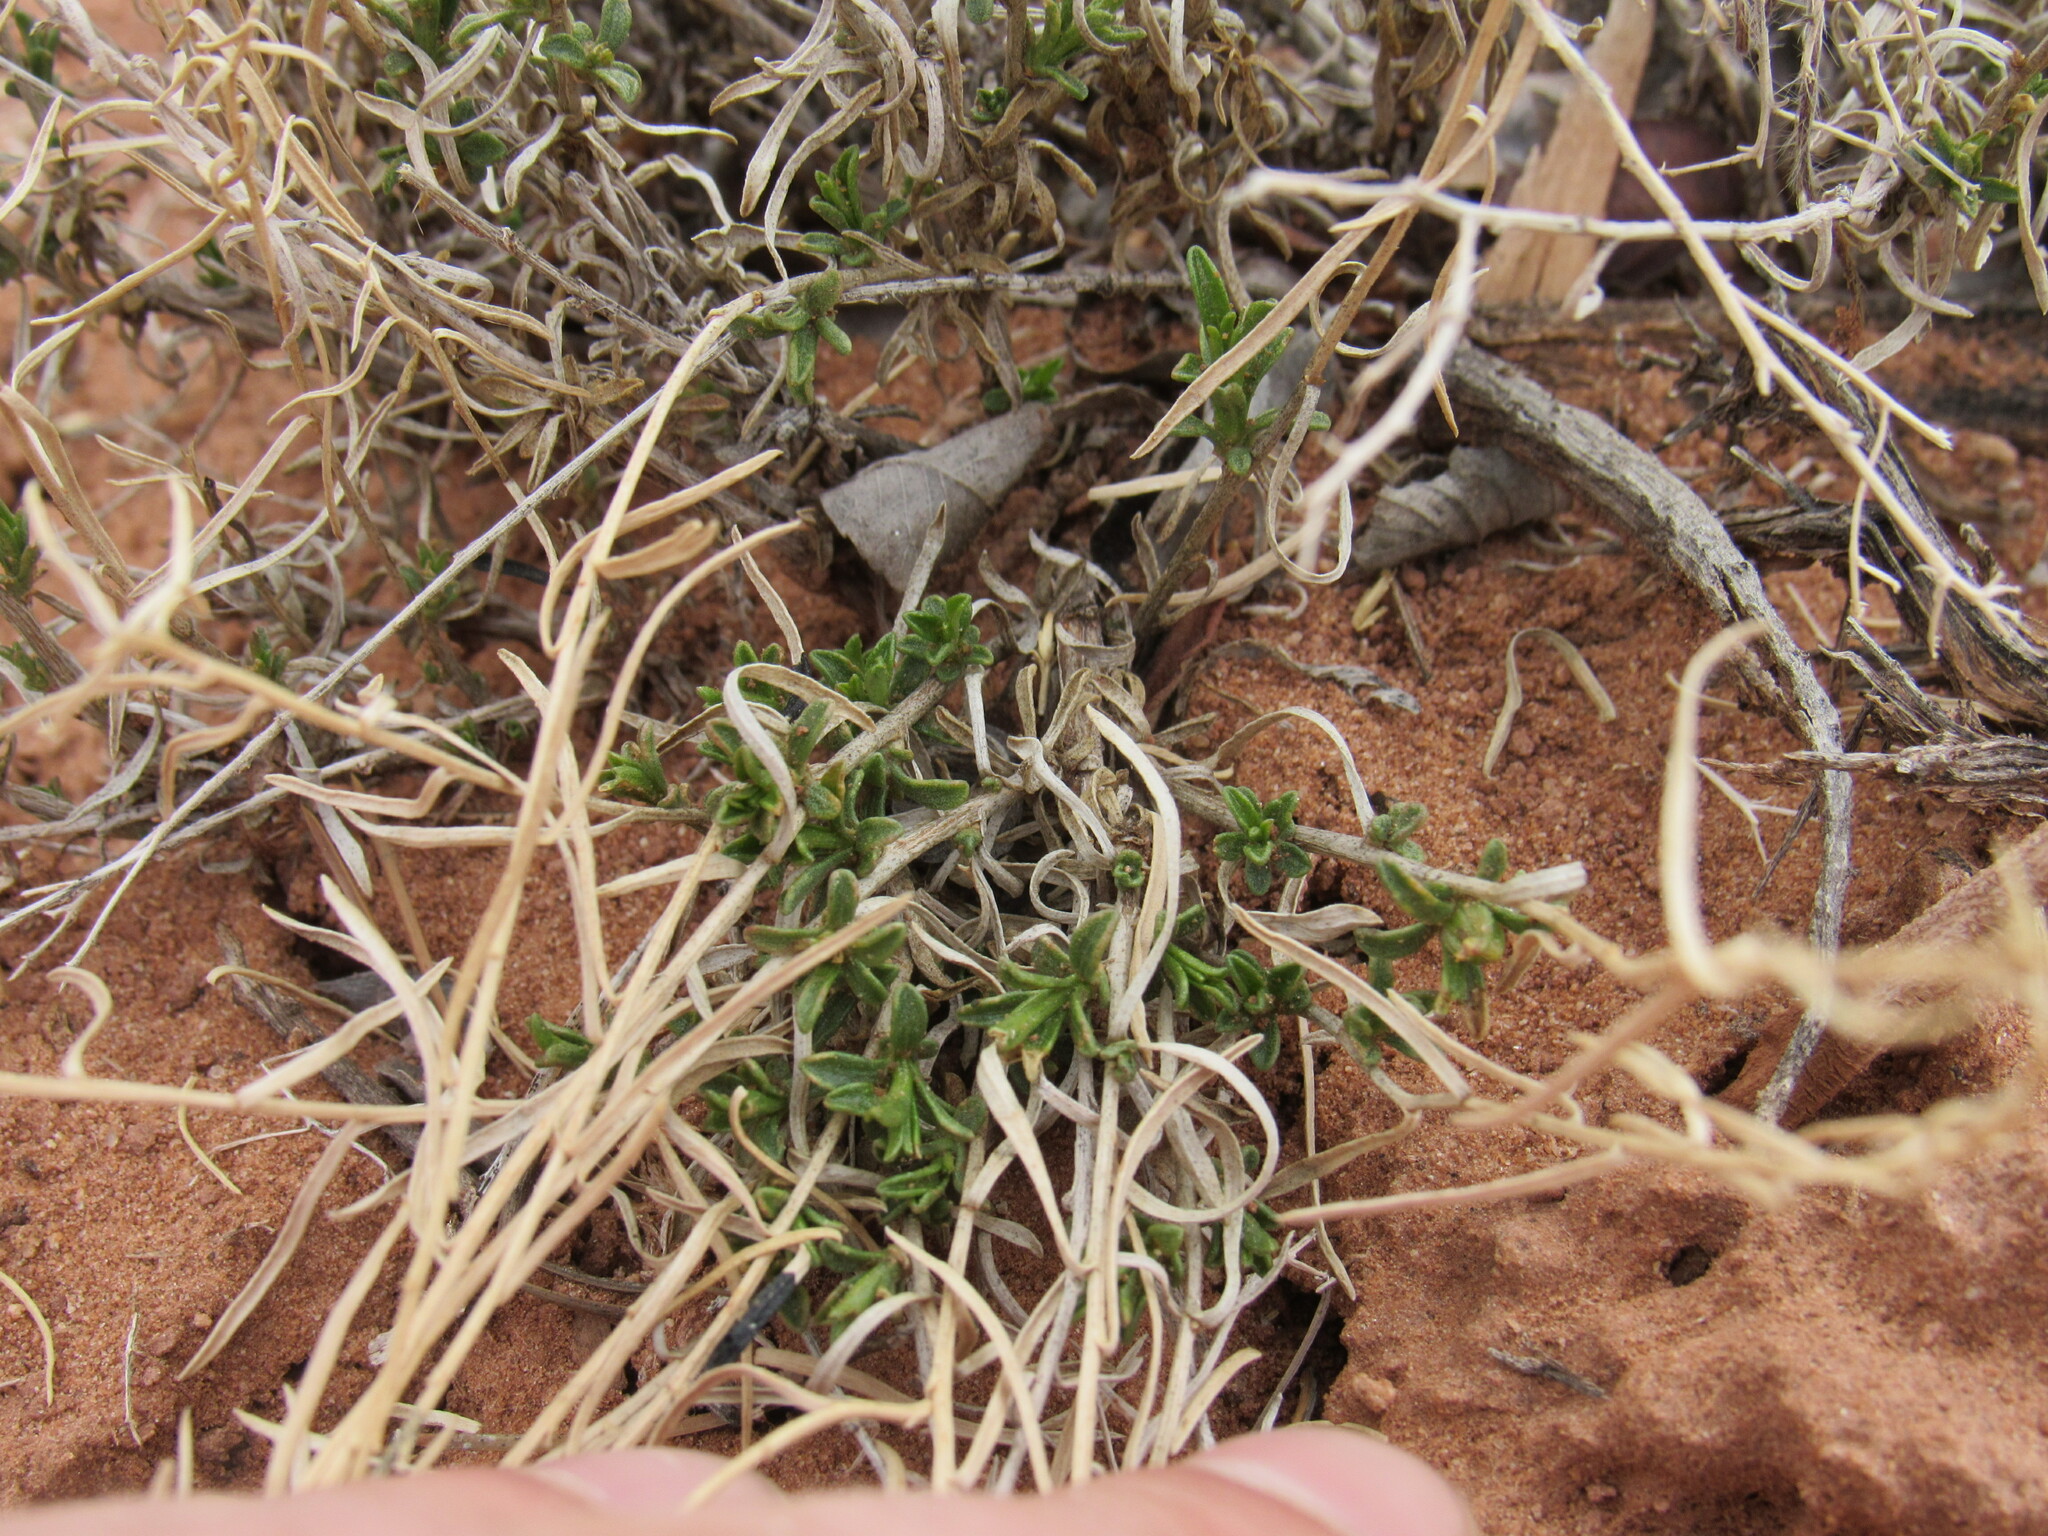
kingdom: Plantae
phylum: Tracheophyta
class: Magnoliopsida
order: Asterales
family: Asteraceae
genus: Gutierrezia
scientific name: Gutierrezia sarothrae
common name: Broom snakeweed
